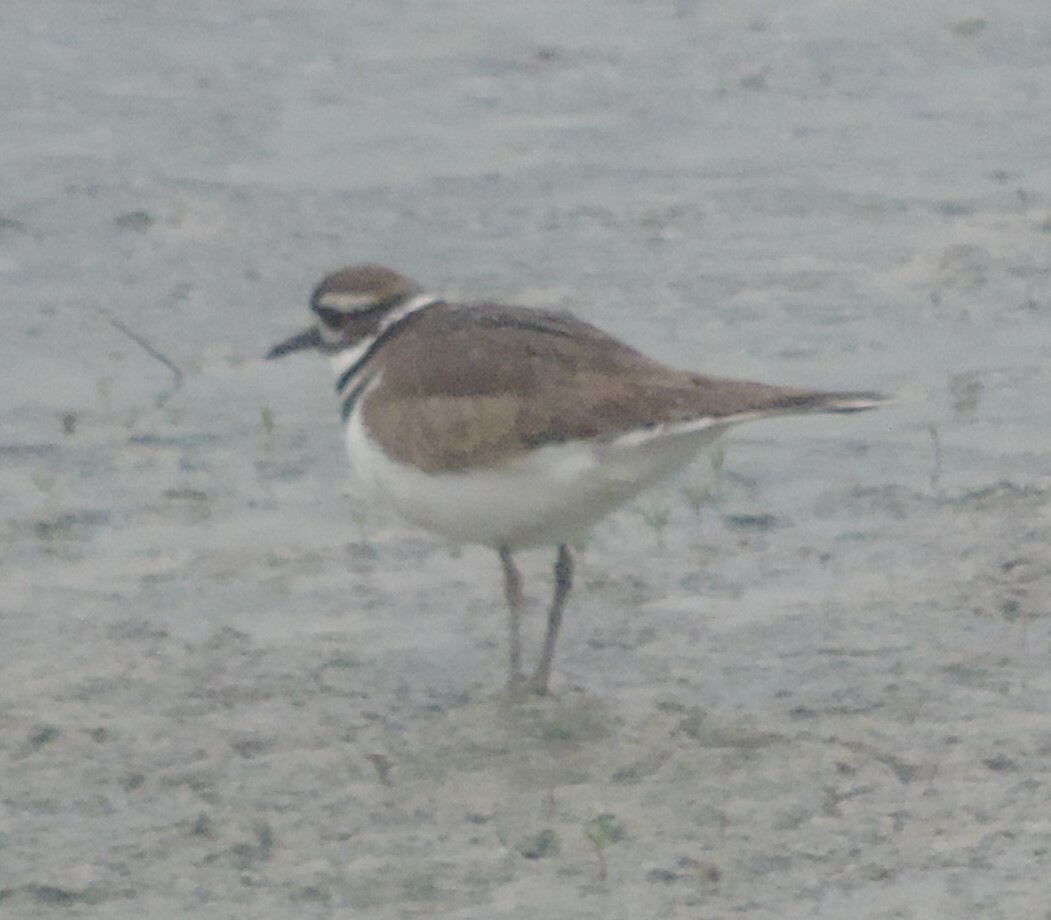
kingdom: Animalia
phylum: Chordata
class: Aves
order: Charadriiformes
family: Charadriidae
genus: Charadrius
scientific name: Charadrius vociferus
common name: Killdeer
